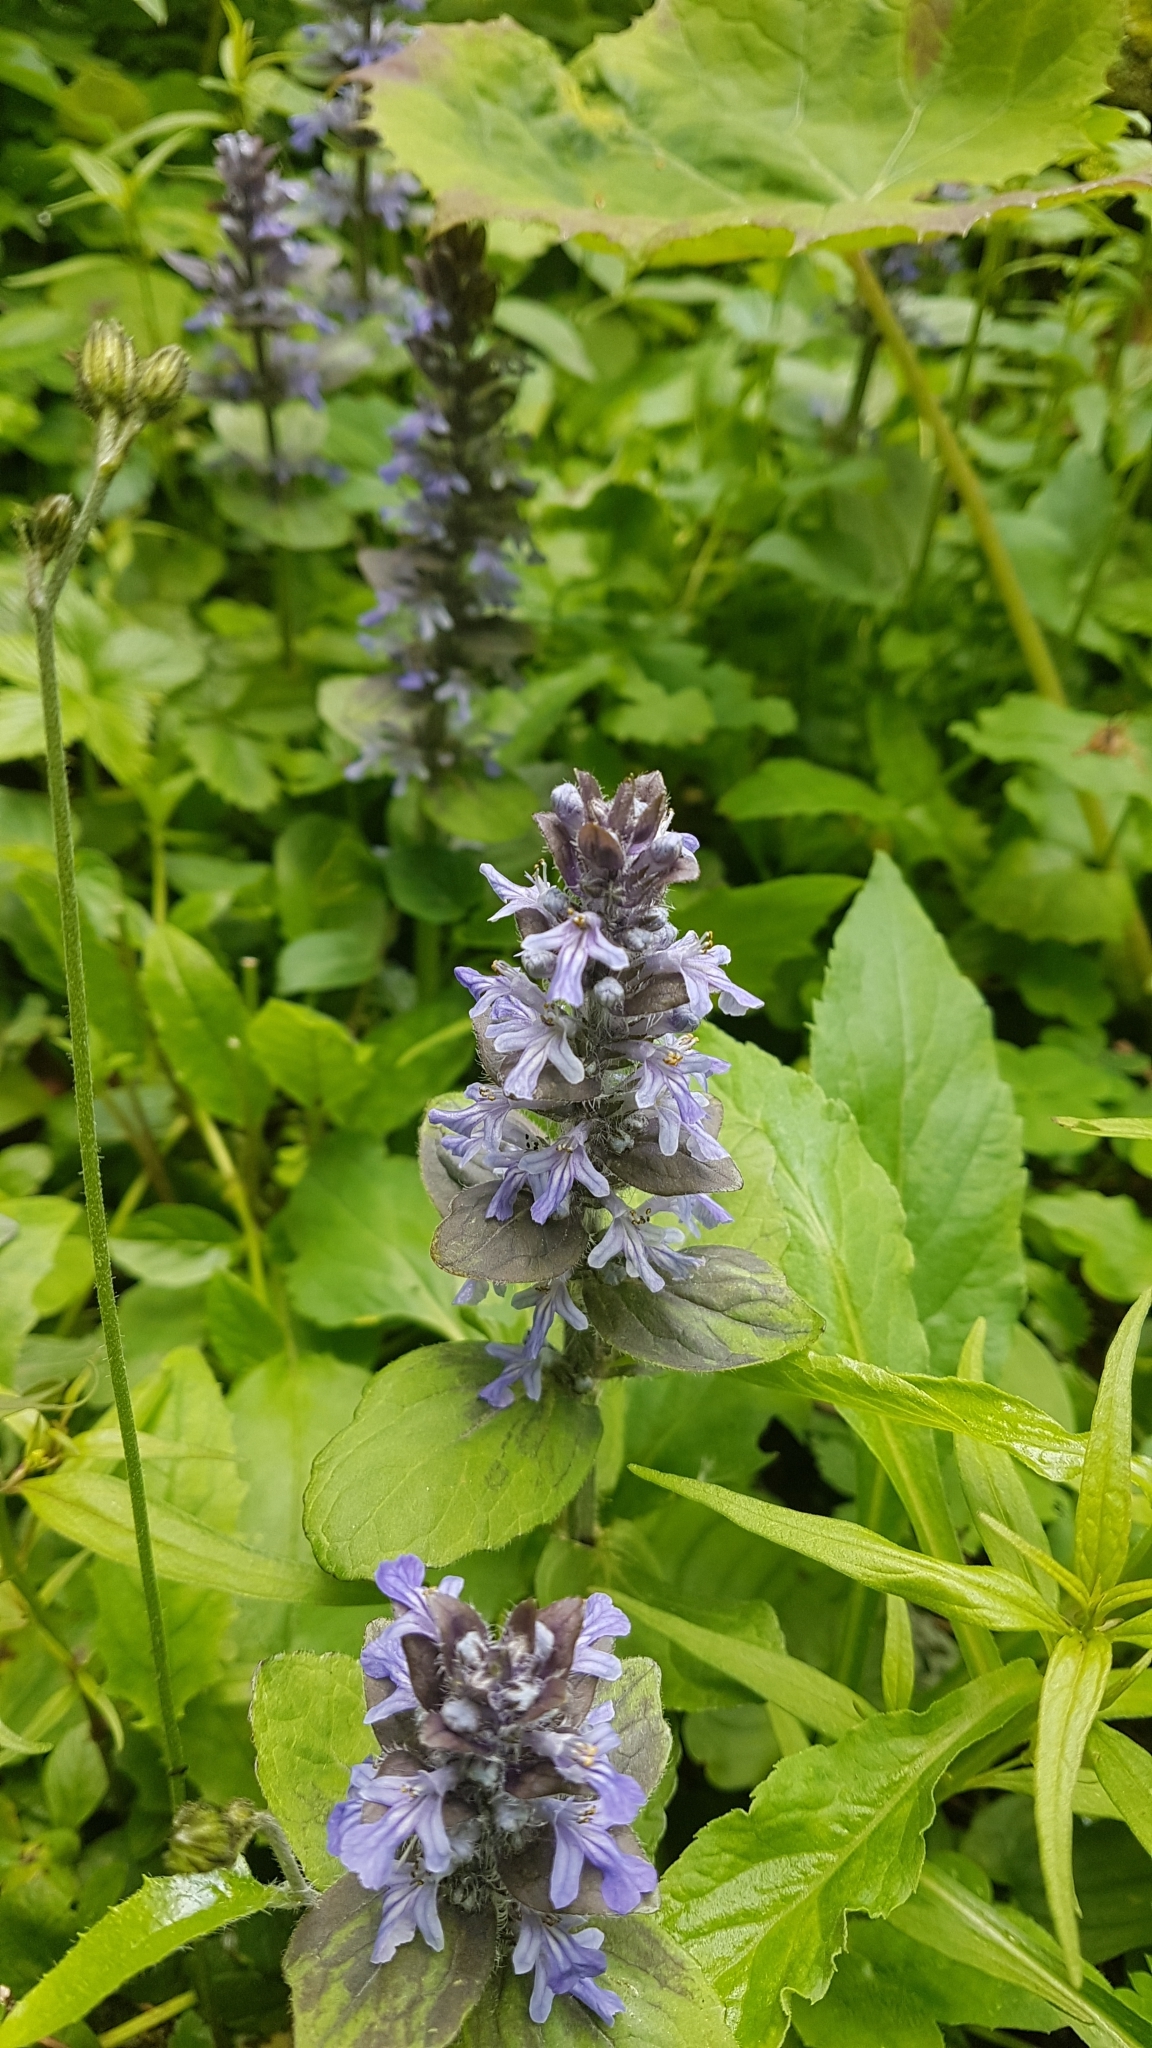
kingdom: Plantae
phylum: Tracheophyta
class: Magnoliopsida
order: Lamiales
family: Lamiaceae
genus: Ajuga
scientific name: Ajuga reptans
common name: Bugle
